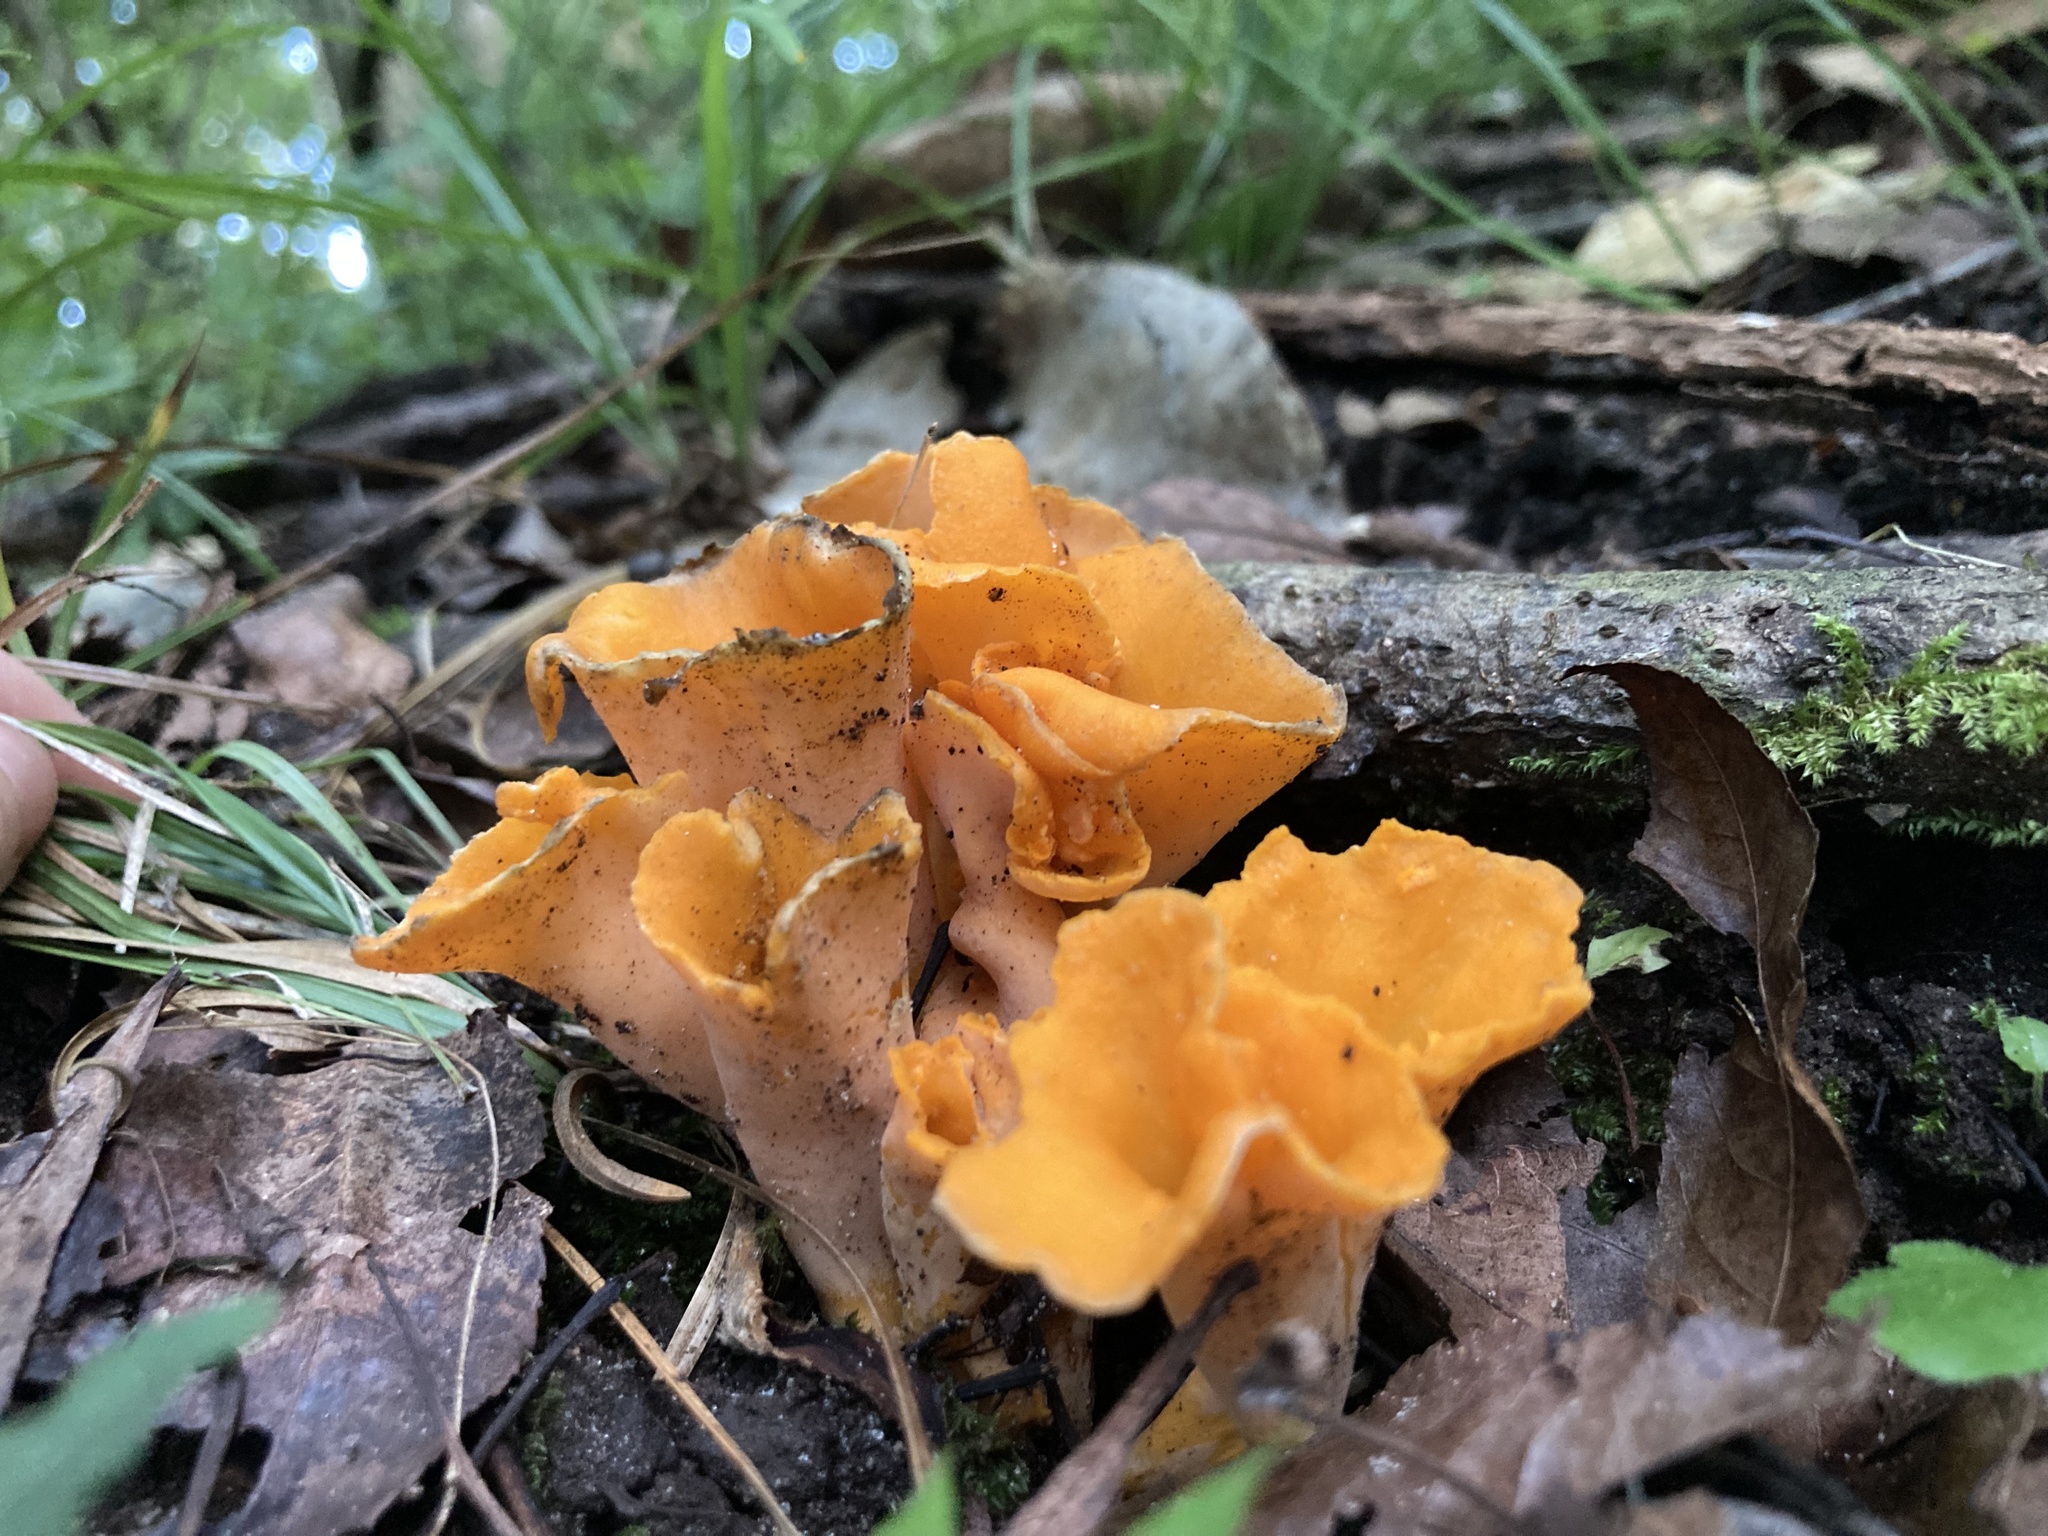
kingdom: Fungi
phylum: Basidiomycota
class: Agaricomycetes
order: Cantharellales
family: Hydnaceae
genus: Cantharellus
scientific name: Cantharellus odoratus
